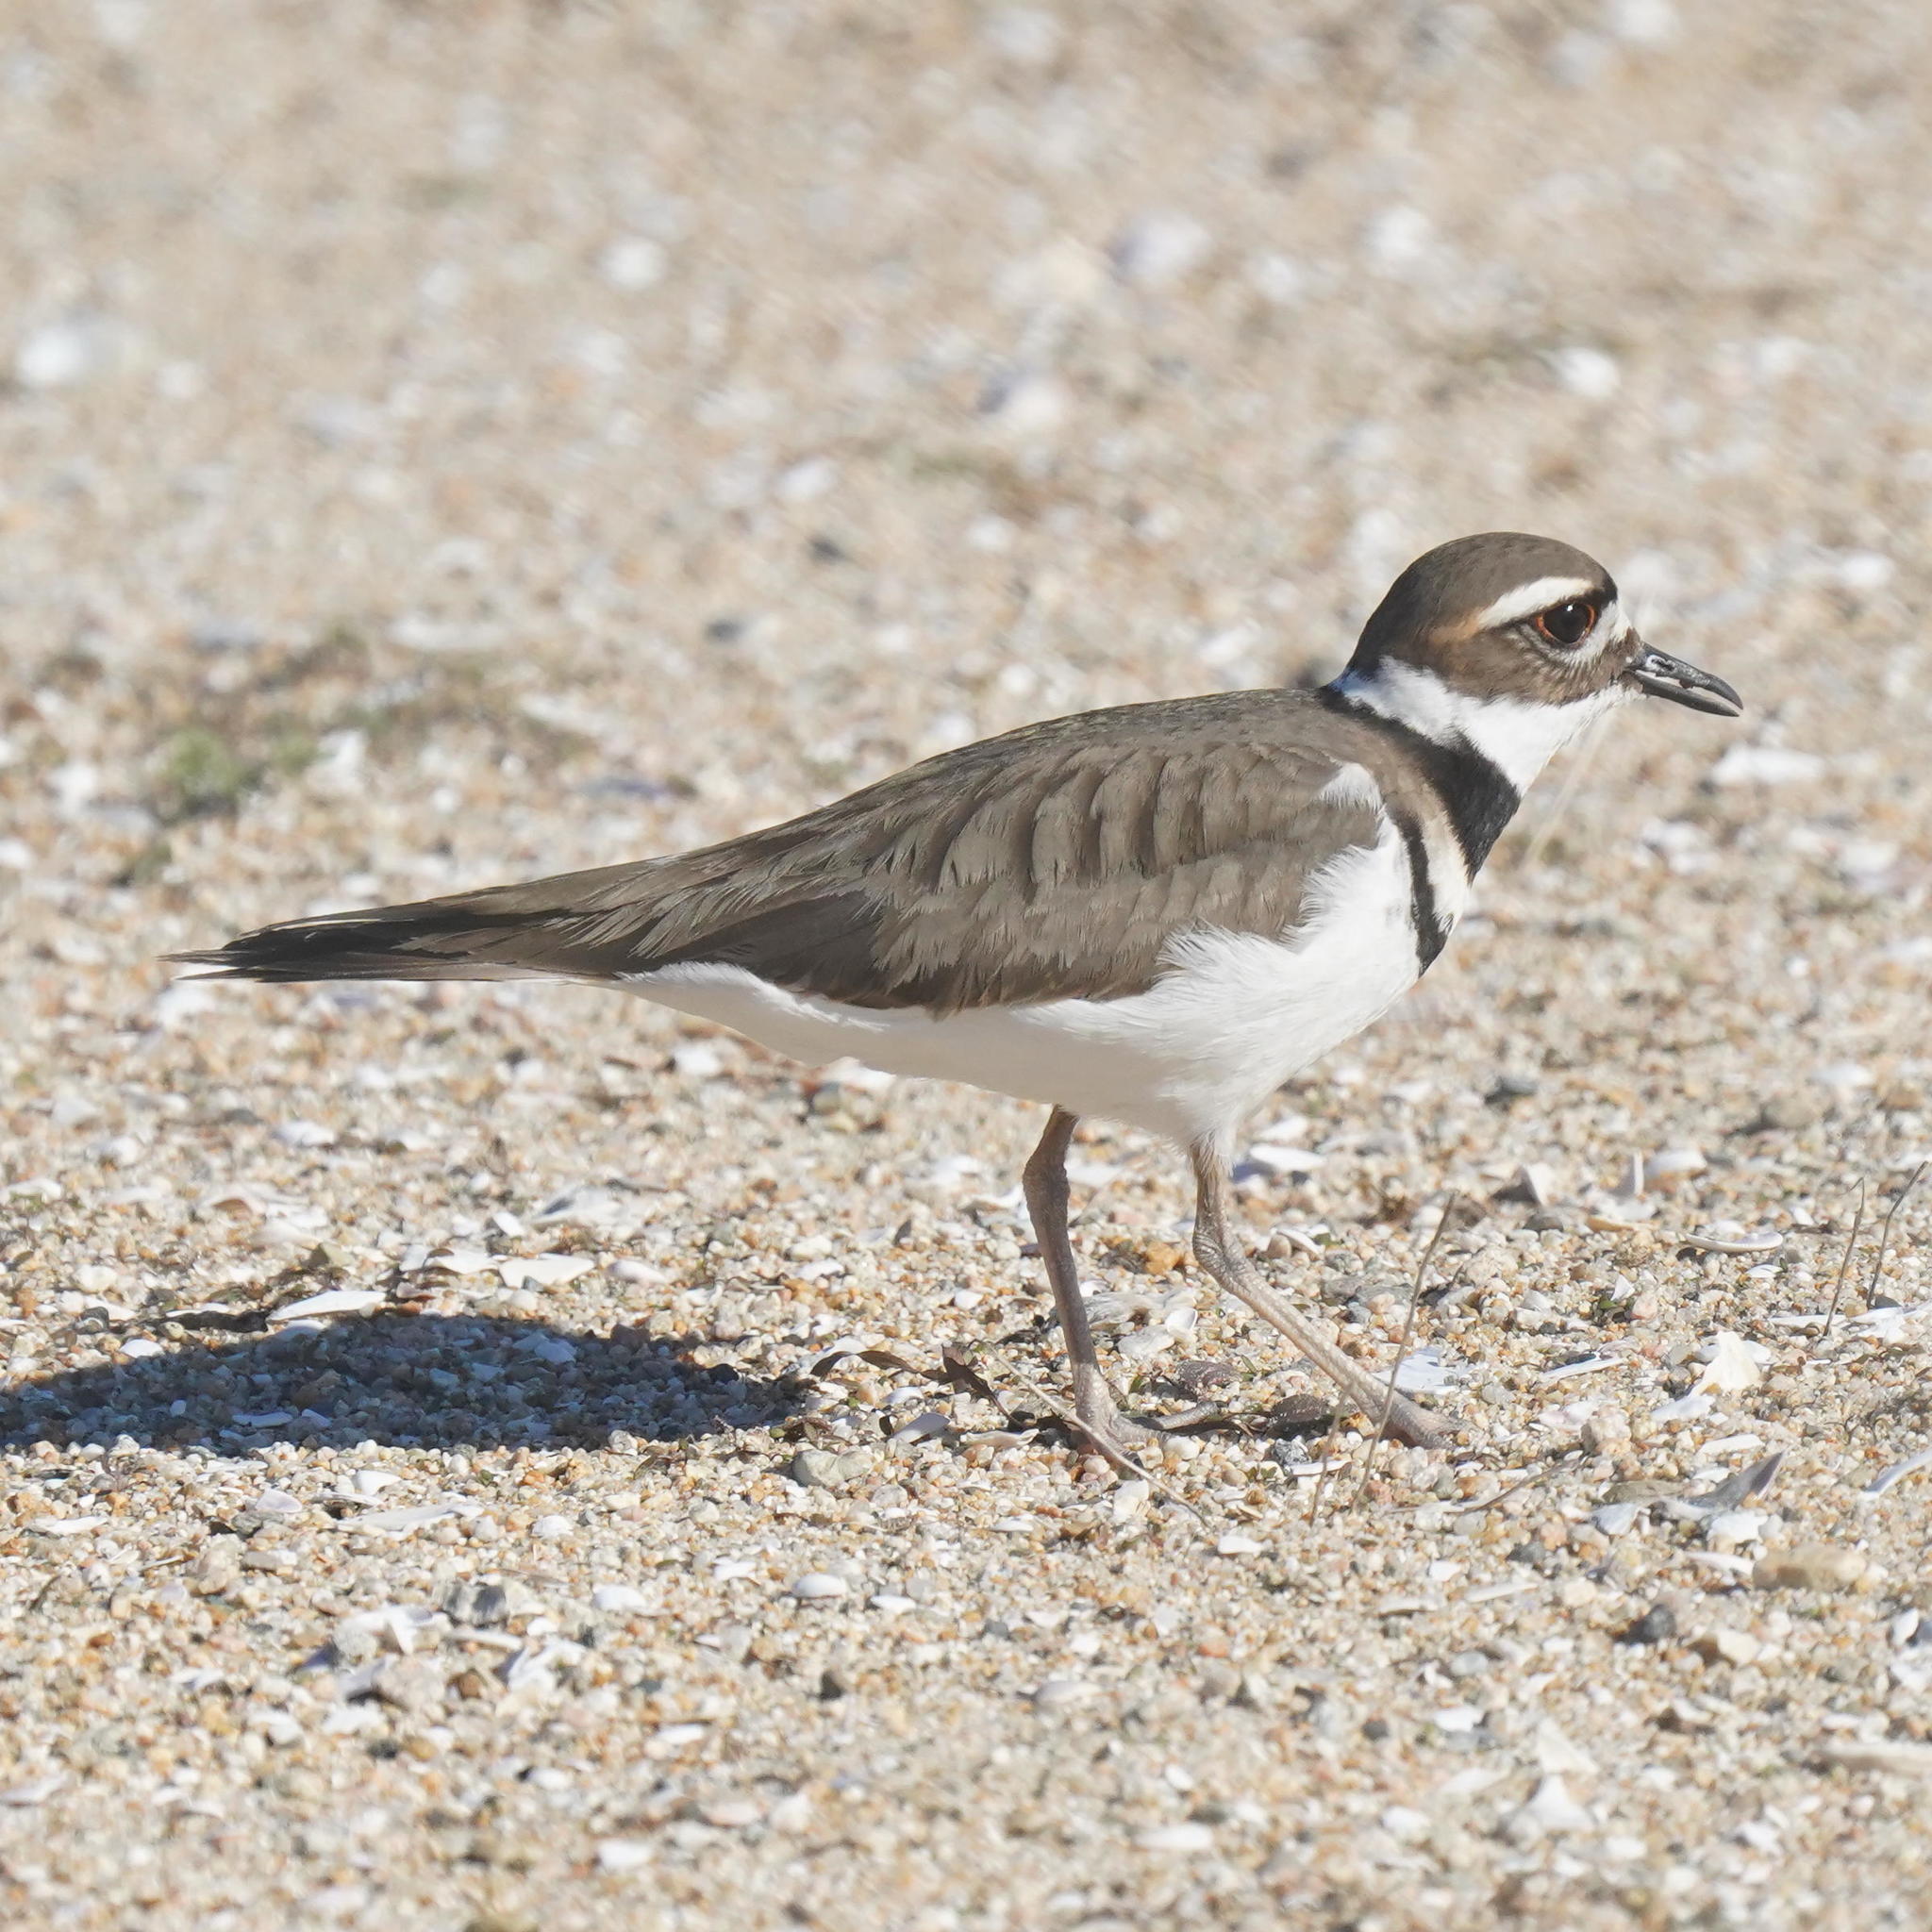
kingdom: Animalia
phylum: Chordata
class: Aves
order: Charadriiformes
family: Charadriidae
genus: Charadrius
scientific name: Charadrius vociferus
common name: Killdeer
